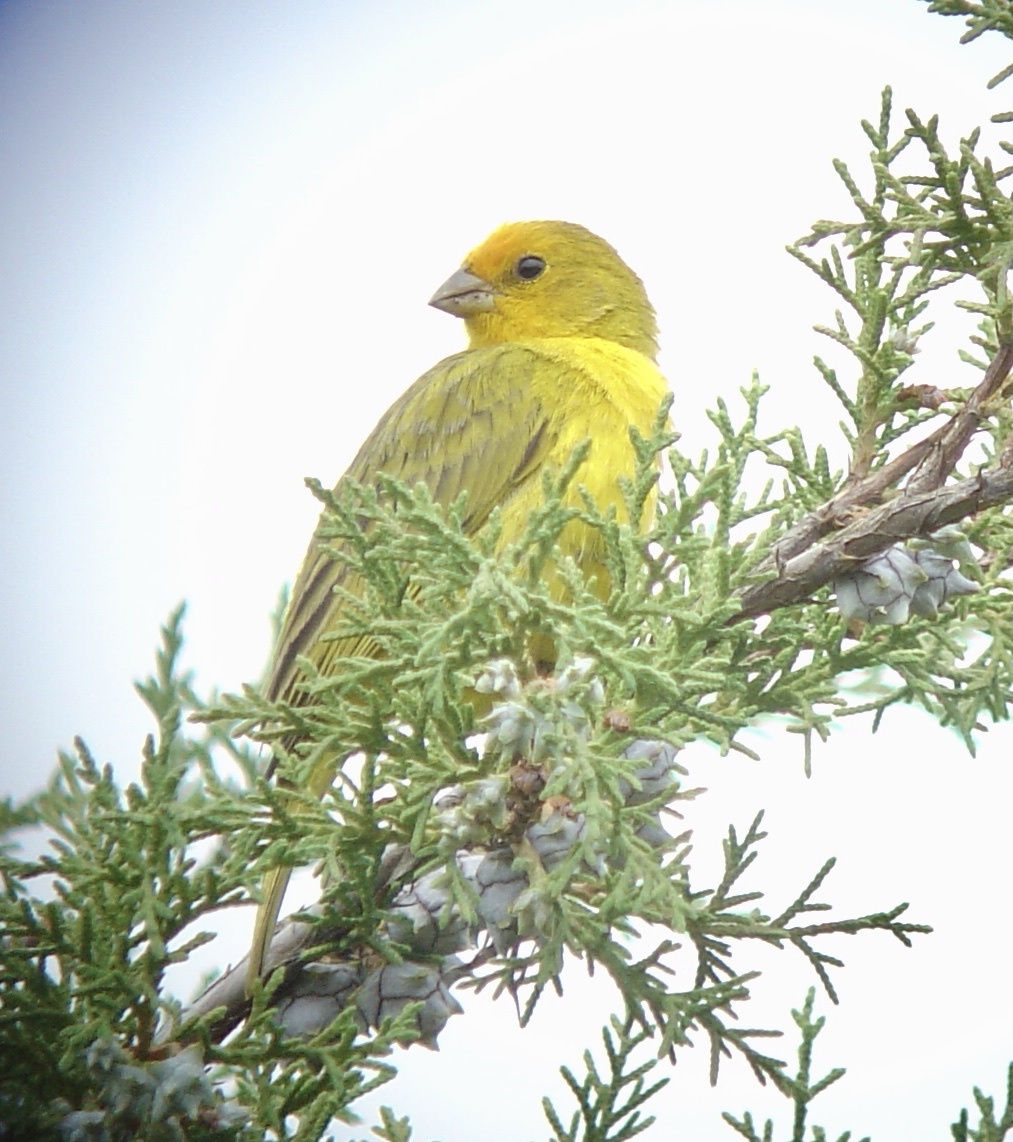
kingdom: Animalia
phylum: Chordata
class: Aves
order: Passeriformes
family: Thraupidae
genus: Sicalis
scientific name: Sicalis flaveola
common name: Saffron finch
